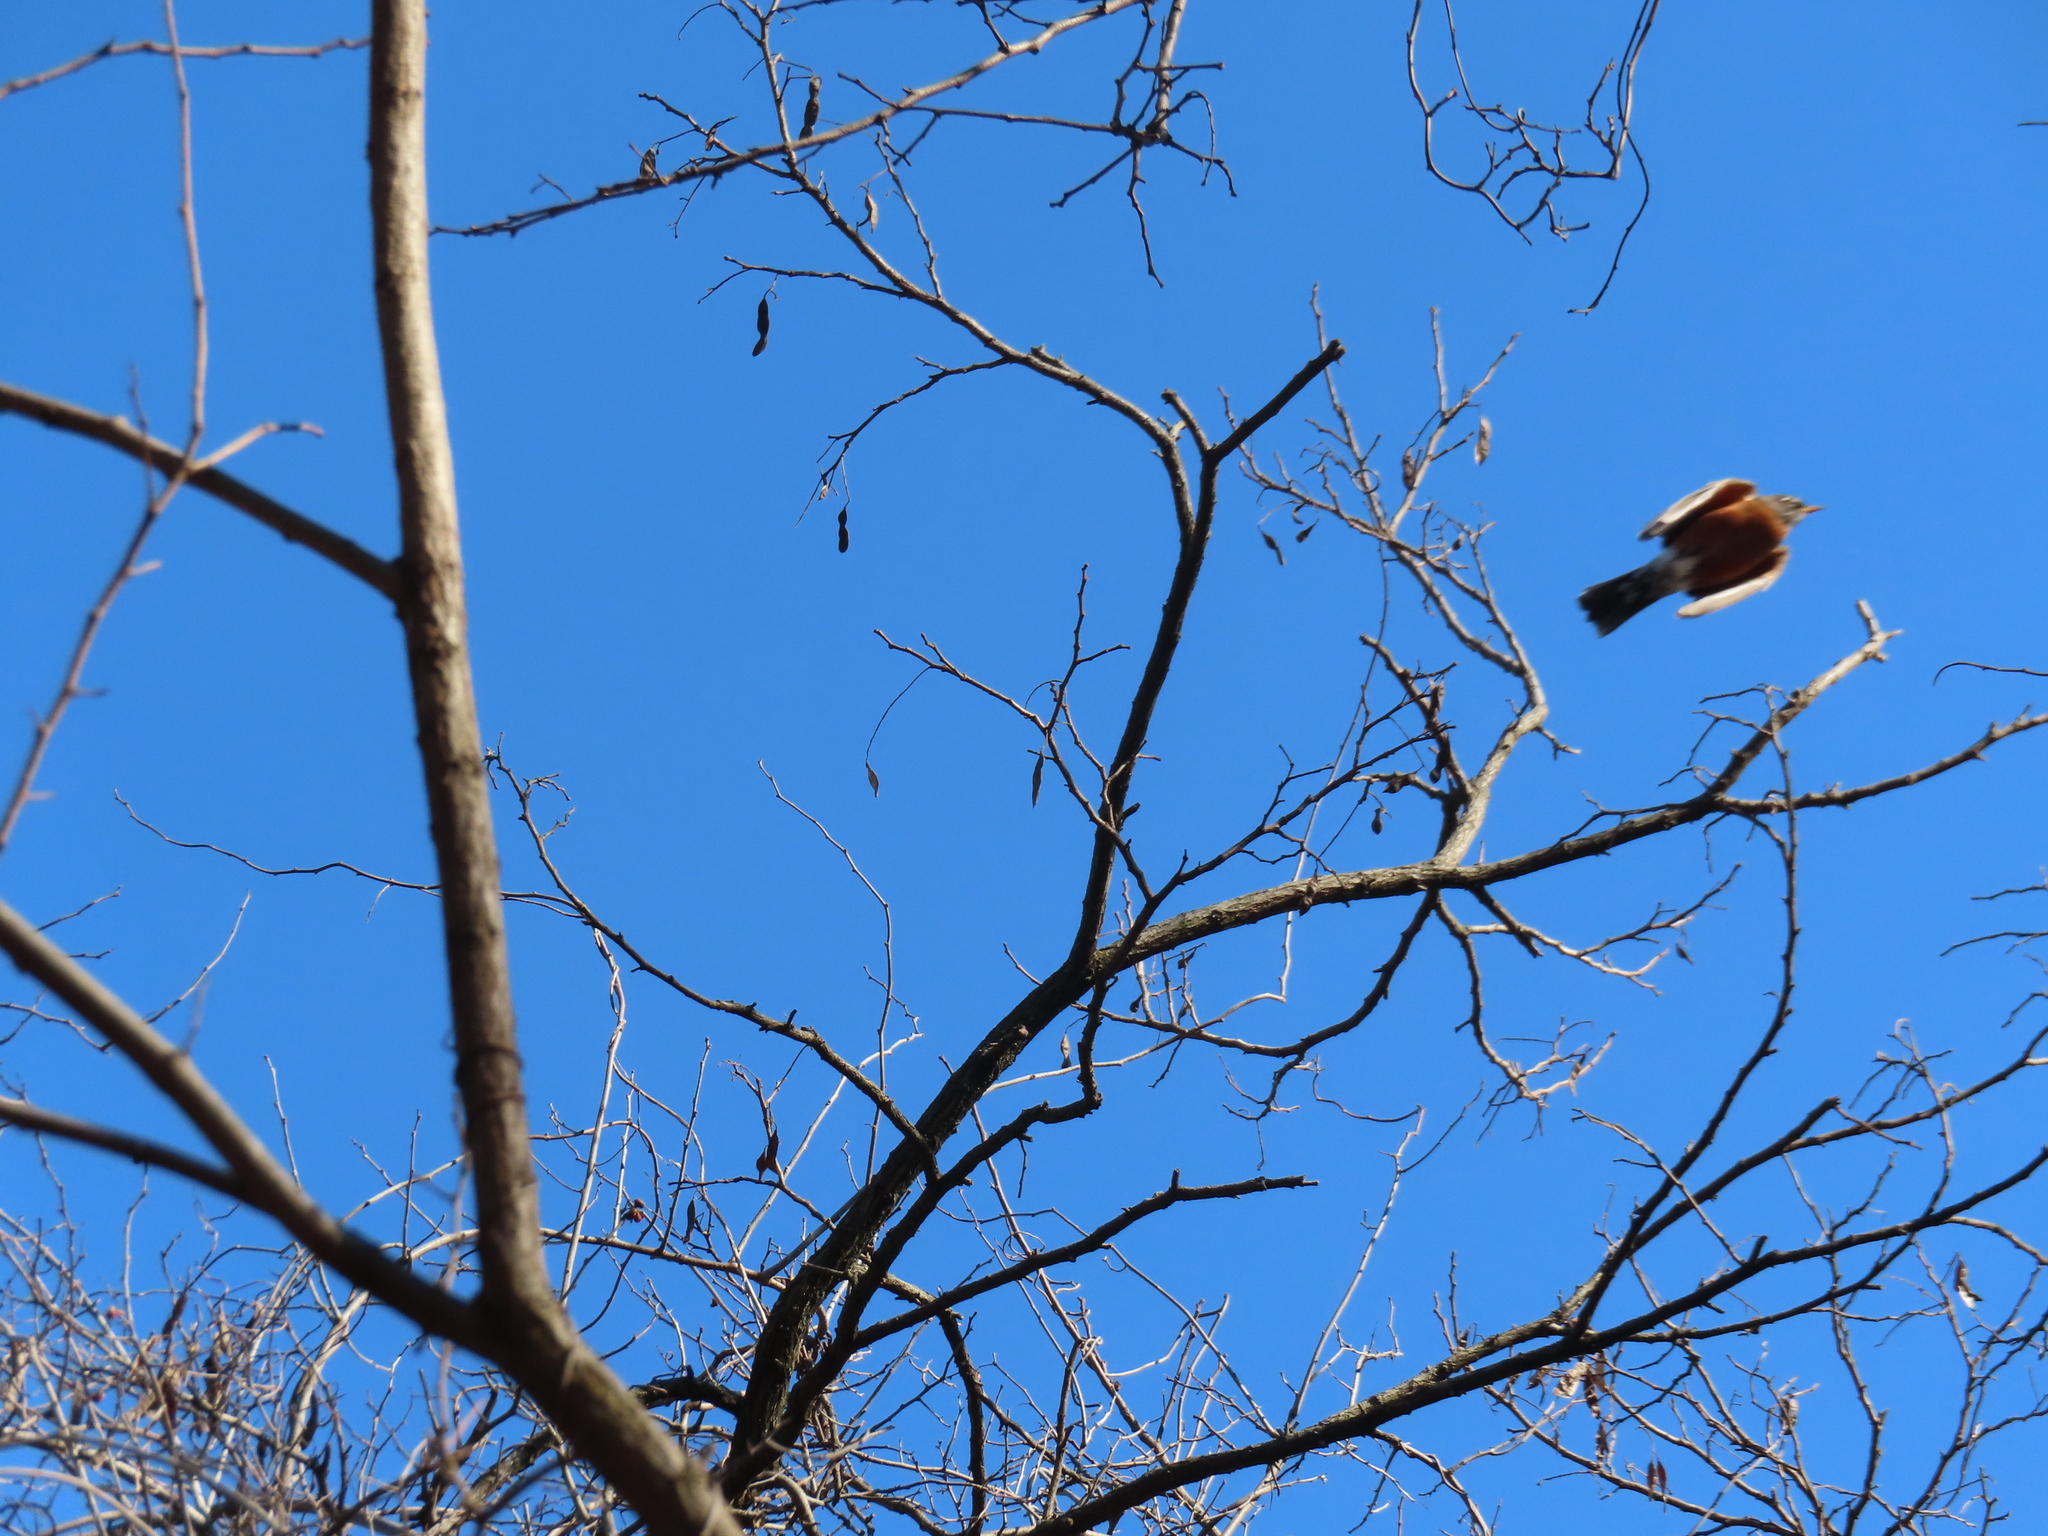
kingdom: Animalia
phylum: Chordata
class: Aves
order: Passeriformes
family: Turdidae
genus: Turdus
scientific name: Turdus migratorius
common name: American robin
